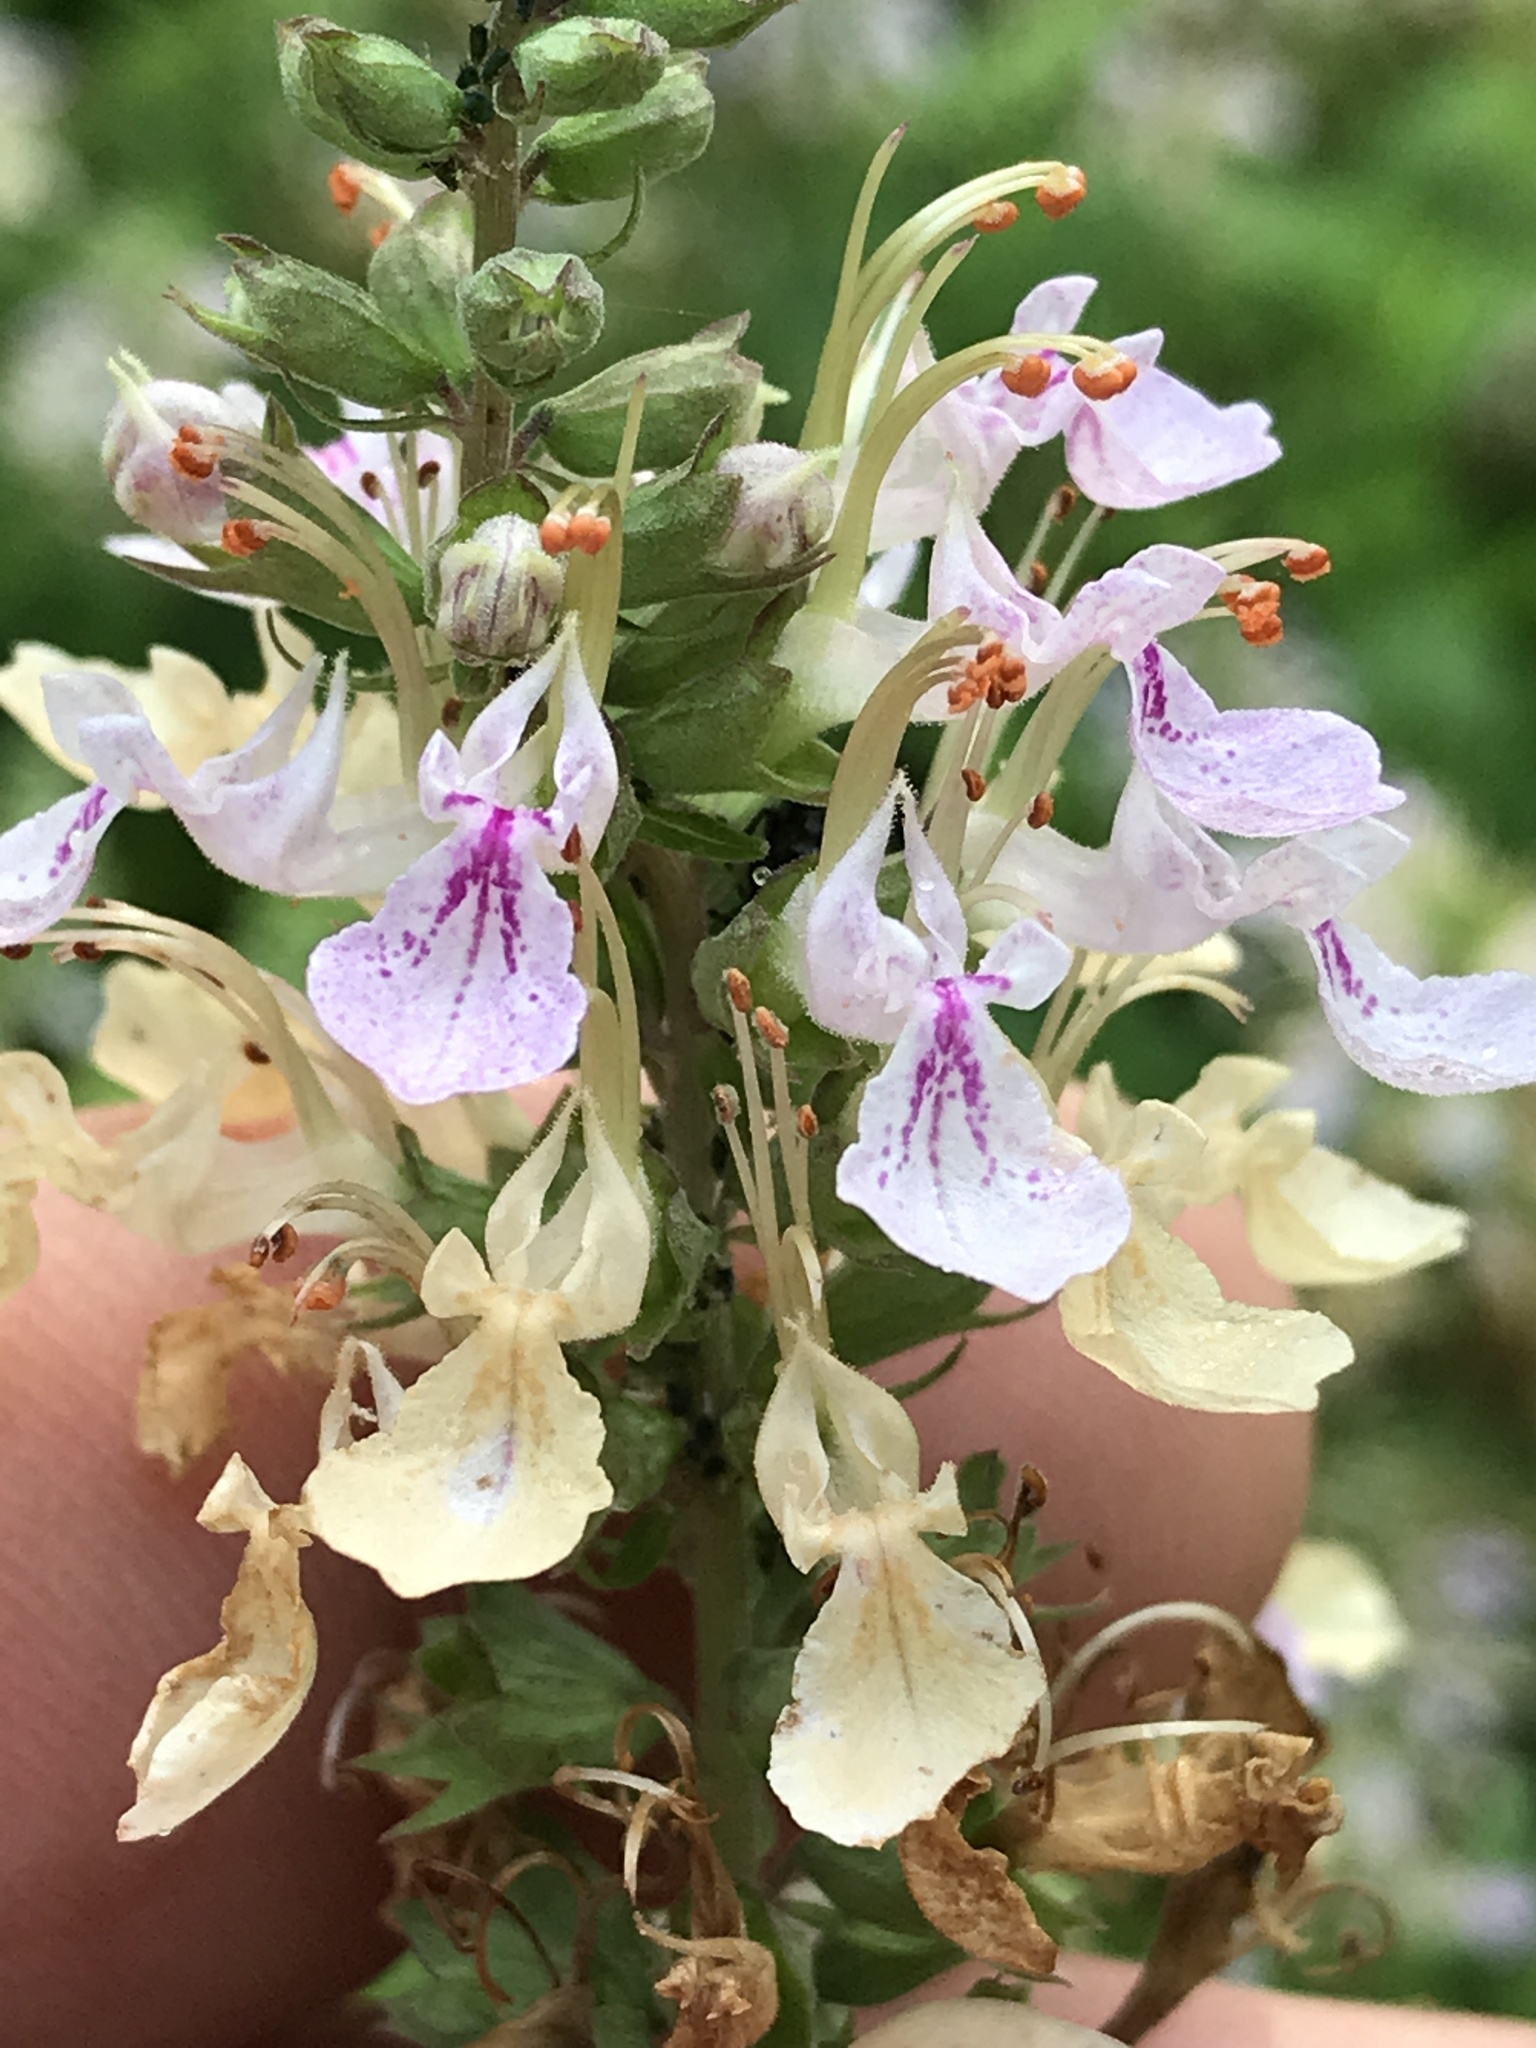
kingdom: Plantae
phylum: Tracheophyta
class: Magnoliopsida
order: Lamiales
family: Lamiaceae
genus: Teucrium
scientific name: Teucrium canadense
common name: American germander
